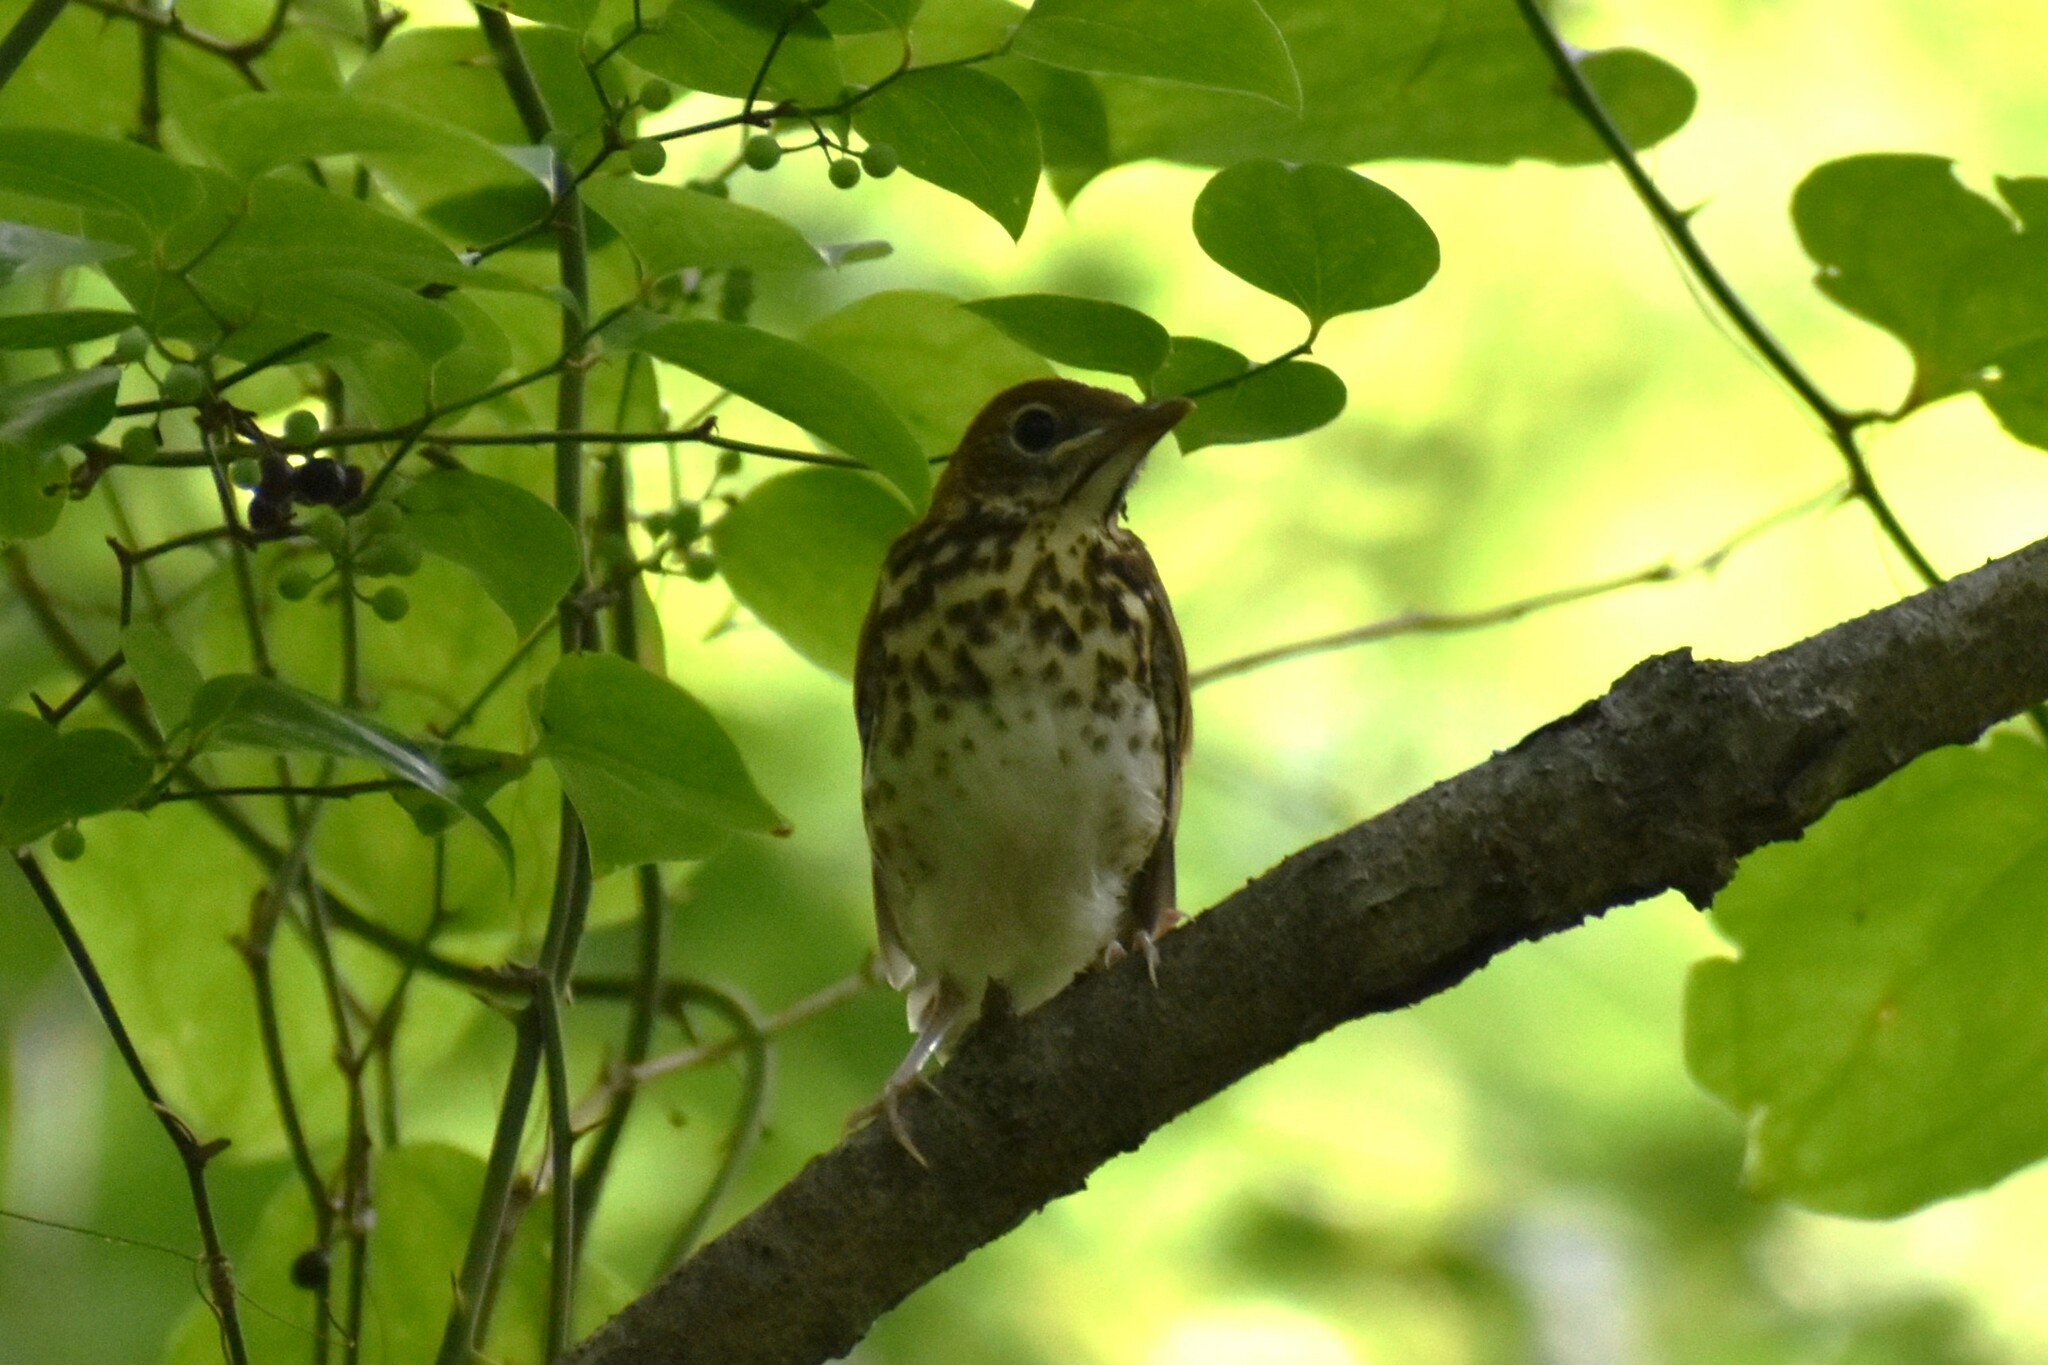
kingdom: Animalia
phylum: Chordata
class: Aves
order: Passeriformes
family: Turdidae
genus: Hylocichla
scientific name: Hylocichla mustelina
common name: Wood thrush
